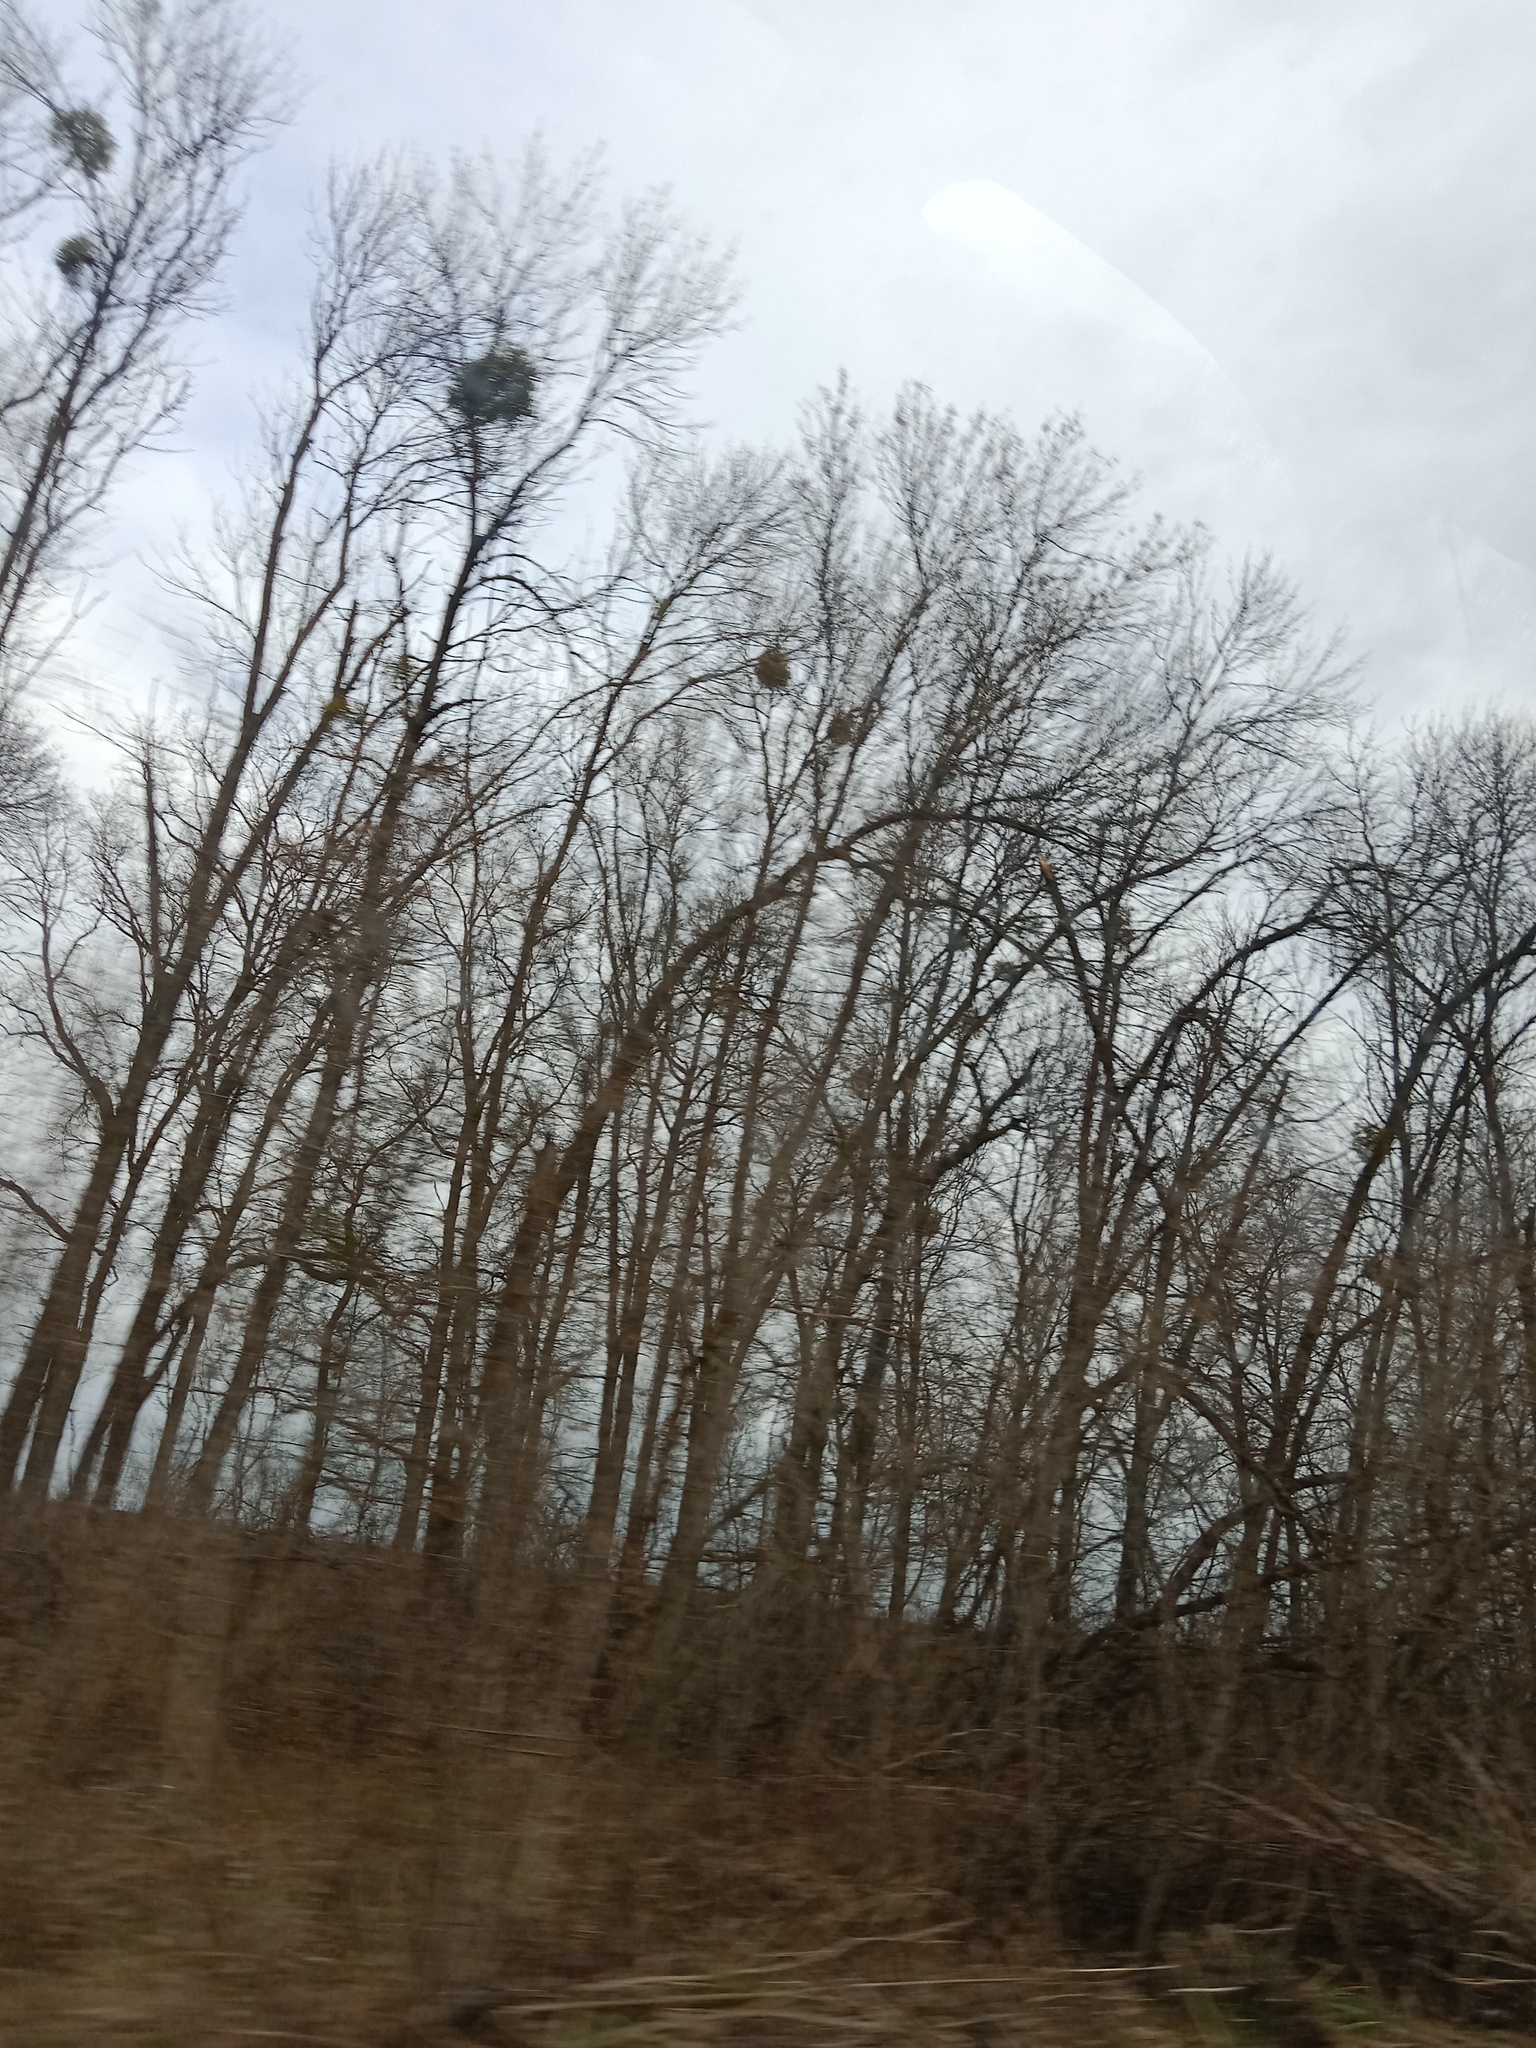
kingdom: Plantae
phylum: Tracheophyta
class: Magnoliopsida
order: Santalales
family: Viscaceae
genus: Viscum
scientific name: Viscum album
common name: Mistletoe
